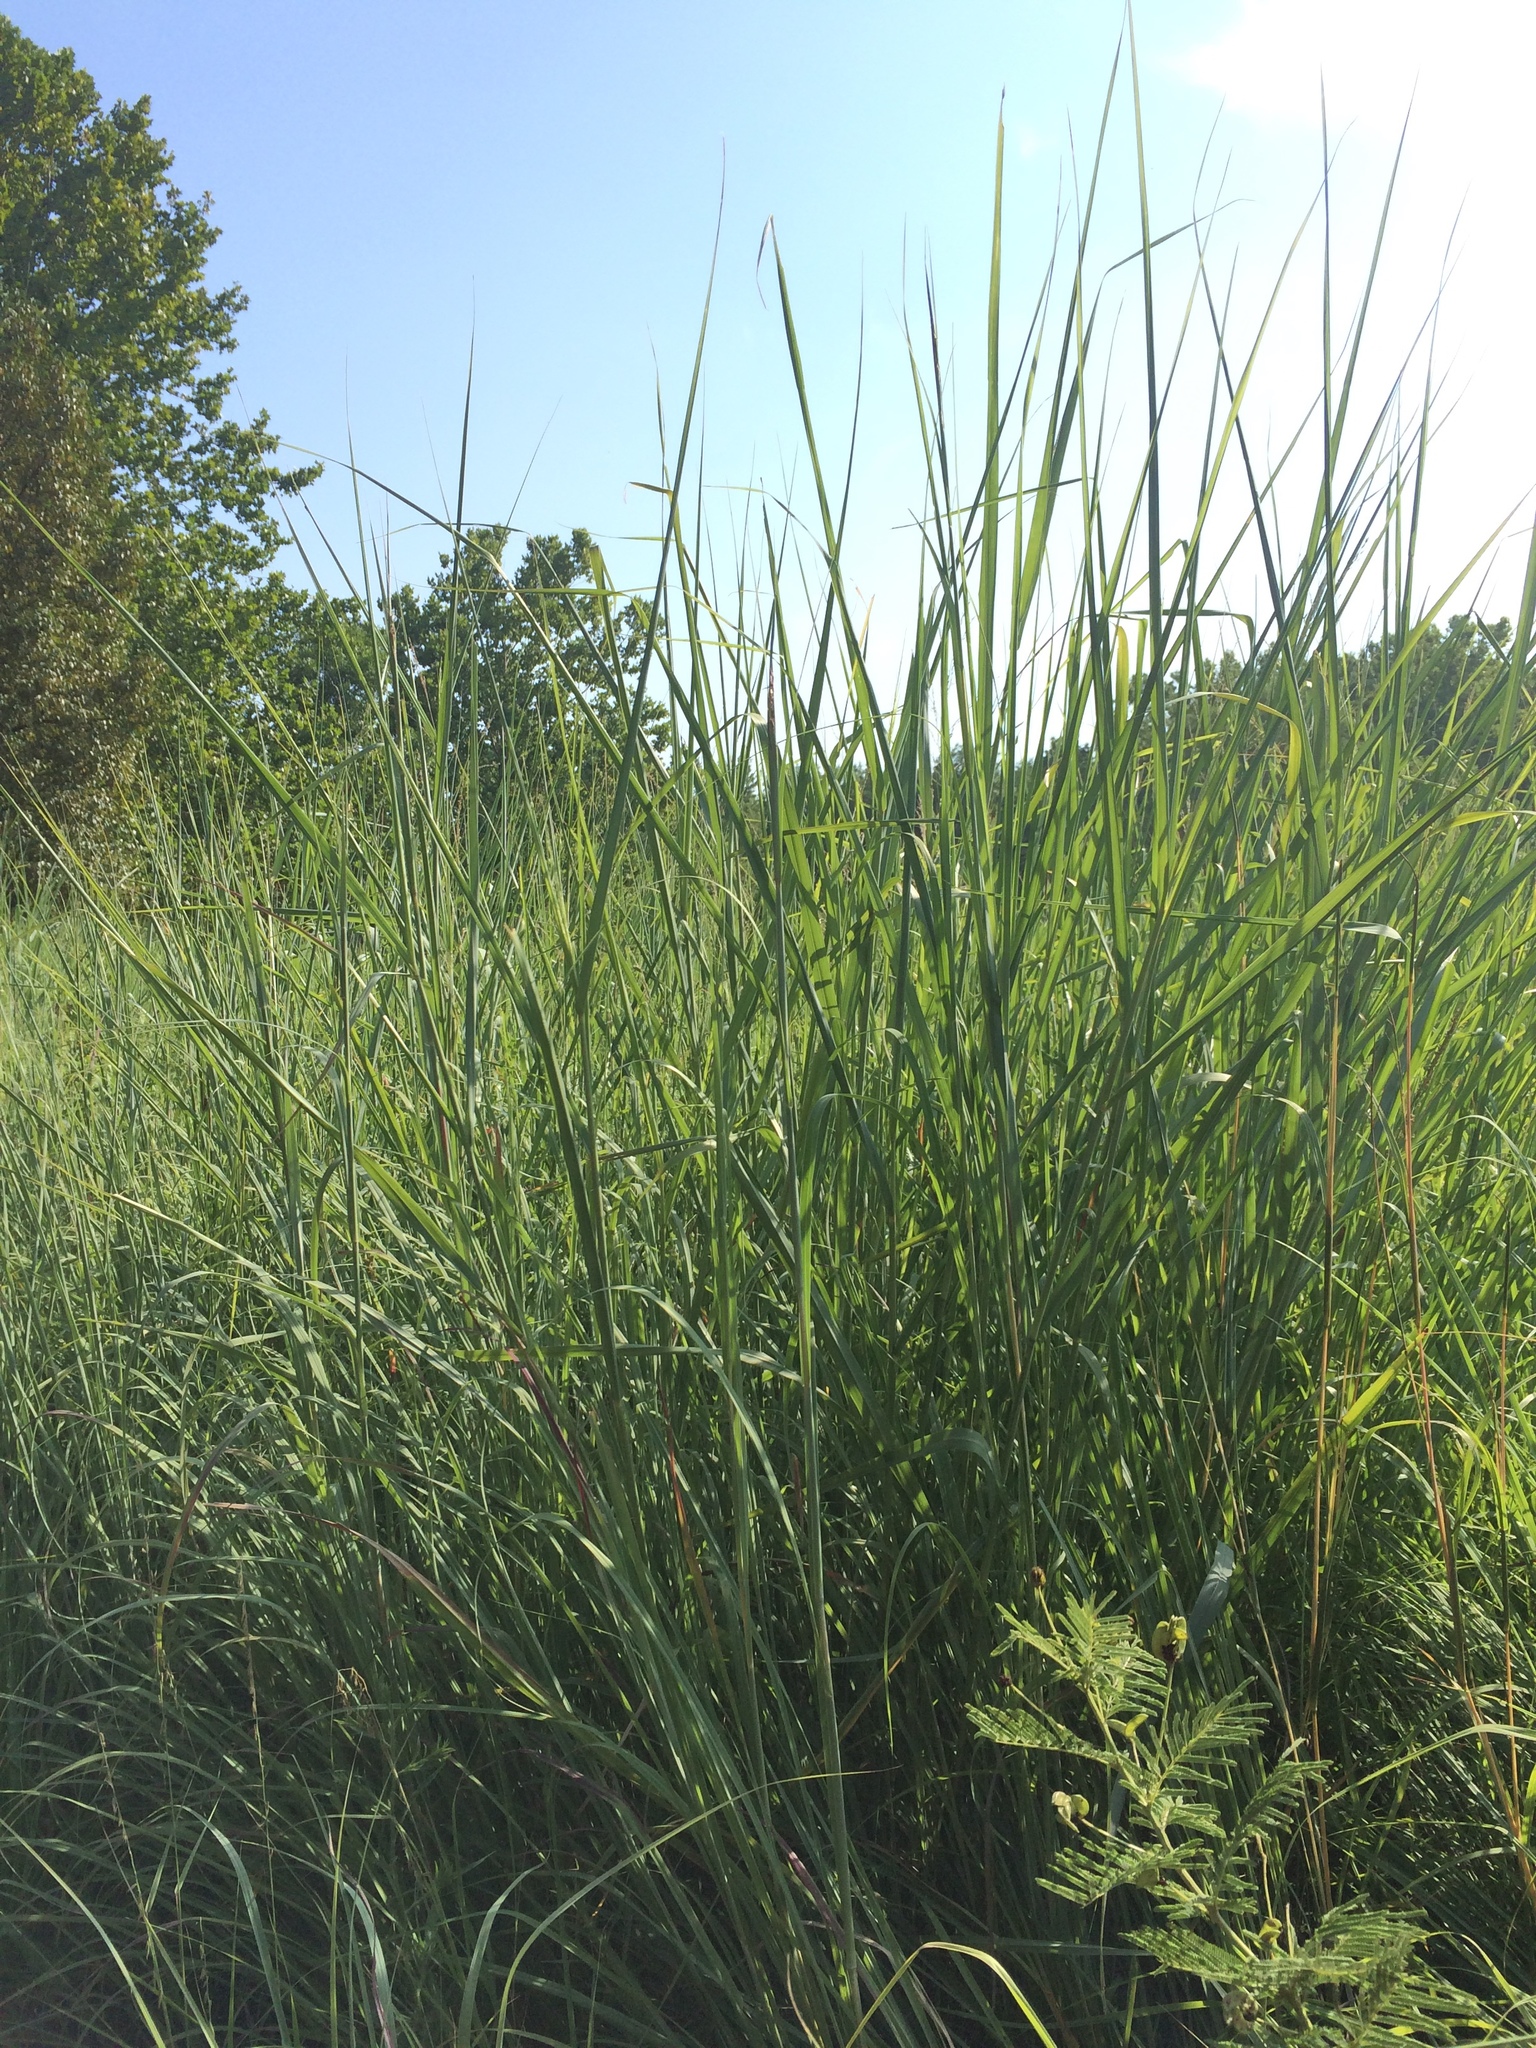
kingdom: Plantae
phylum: Tracheophyta
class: Liliopsida
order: Poales
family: Poaceae
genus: Andropogon
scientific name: Andropogon gerardi
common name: Big bluestem
